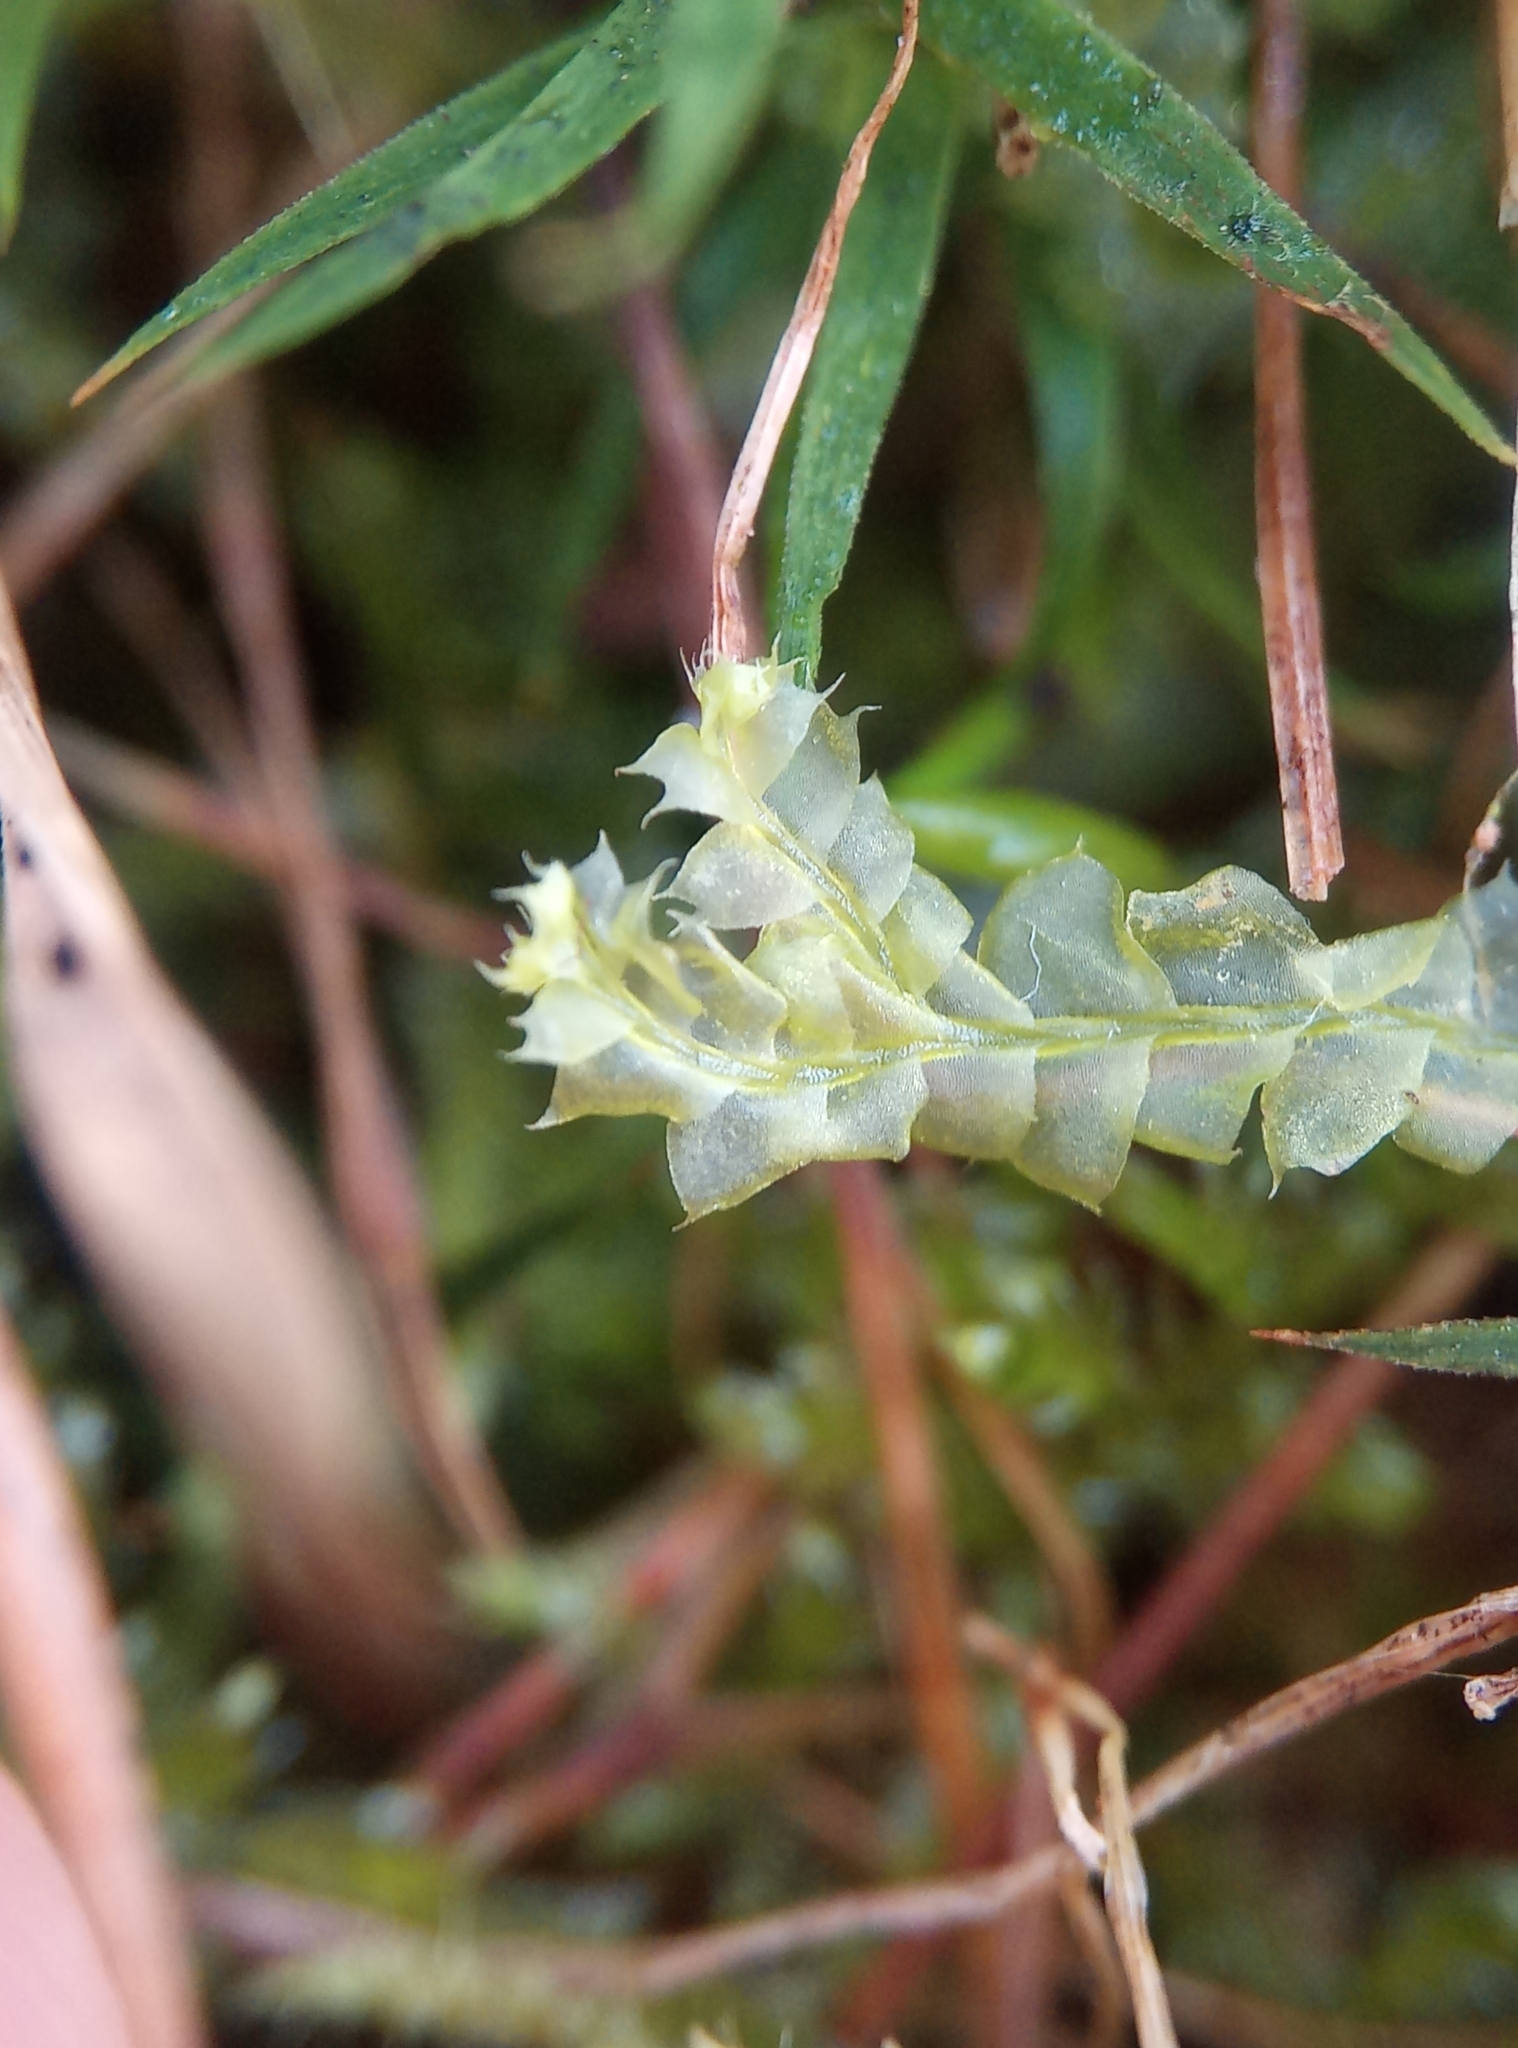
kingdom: Plantae
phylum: Marchantiophyta
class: Jungermanniopsida
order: Jungermanniales
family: Lophocoleaceae
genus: Lophocolea
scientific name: Lophocolea bidentata
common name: Bifid crestwort
